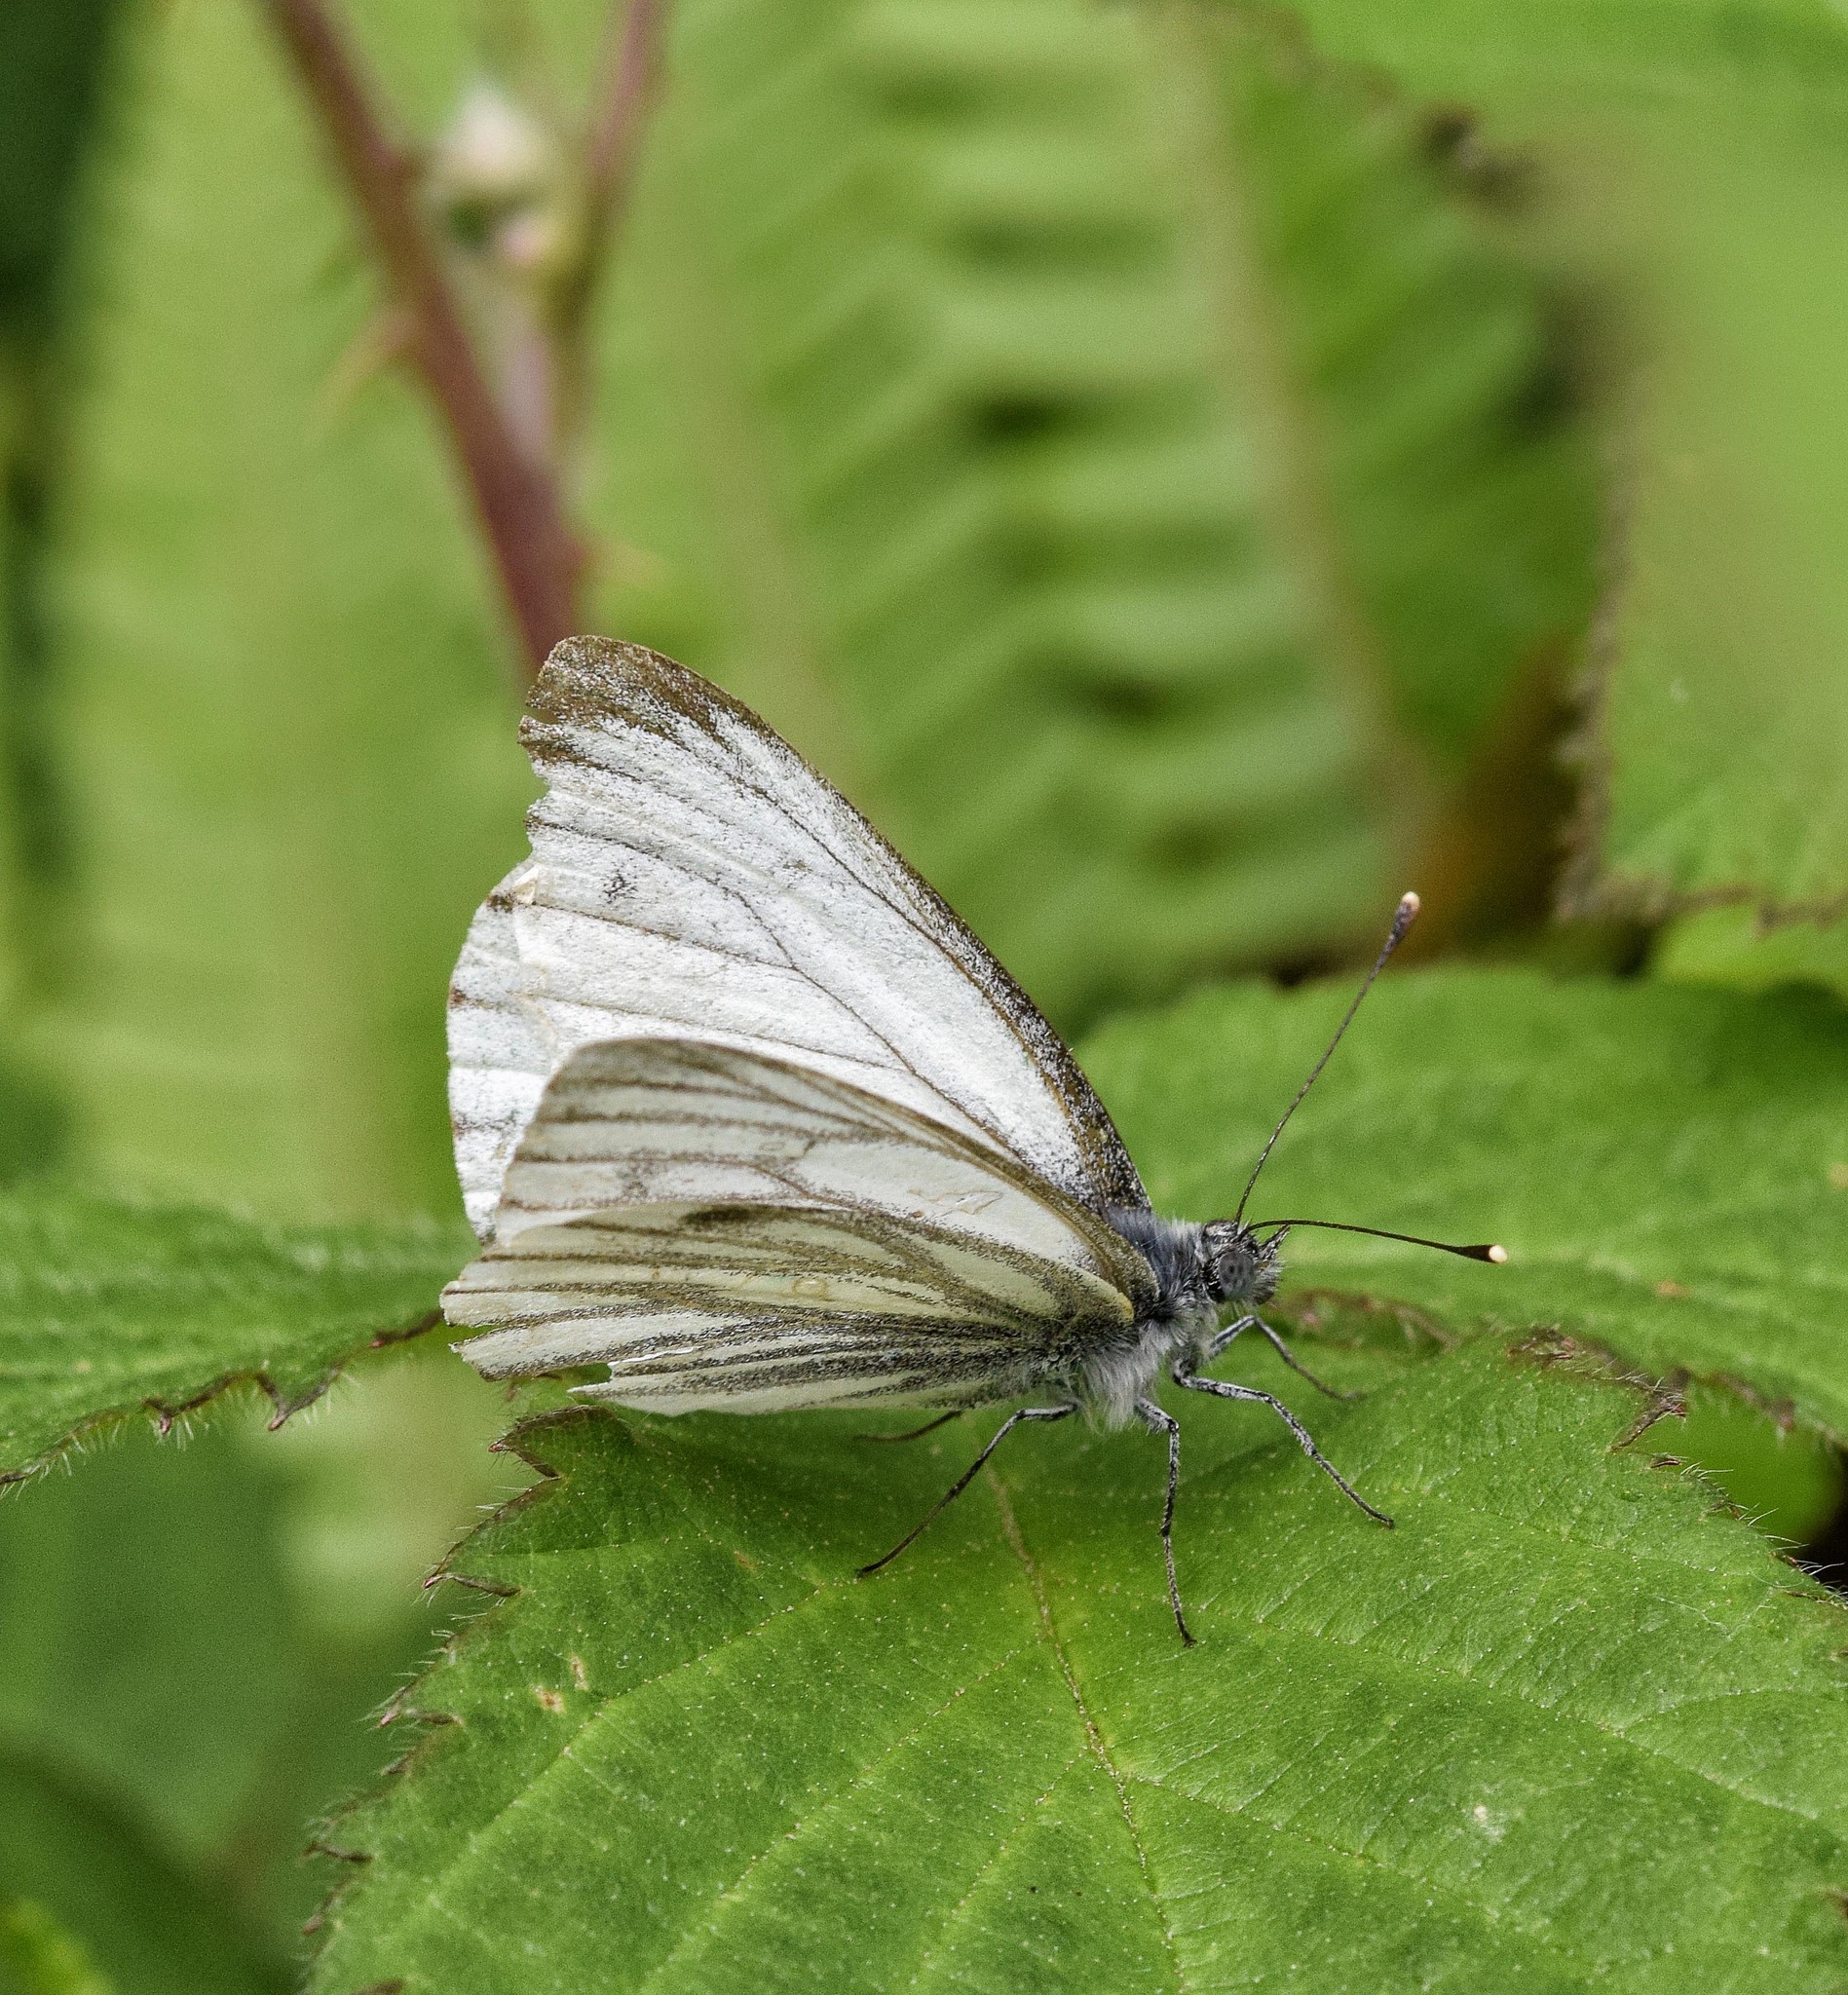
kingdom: Animalia
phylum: Arthropoda
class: Insecta
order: Lepidoptera
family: Pieridae
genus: Pieris
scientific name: Pieris napi
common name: Green-veined white
